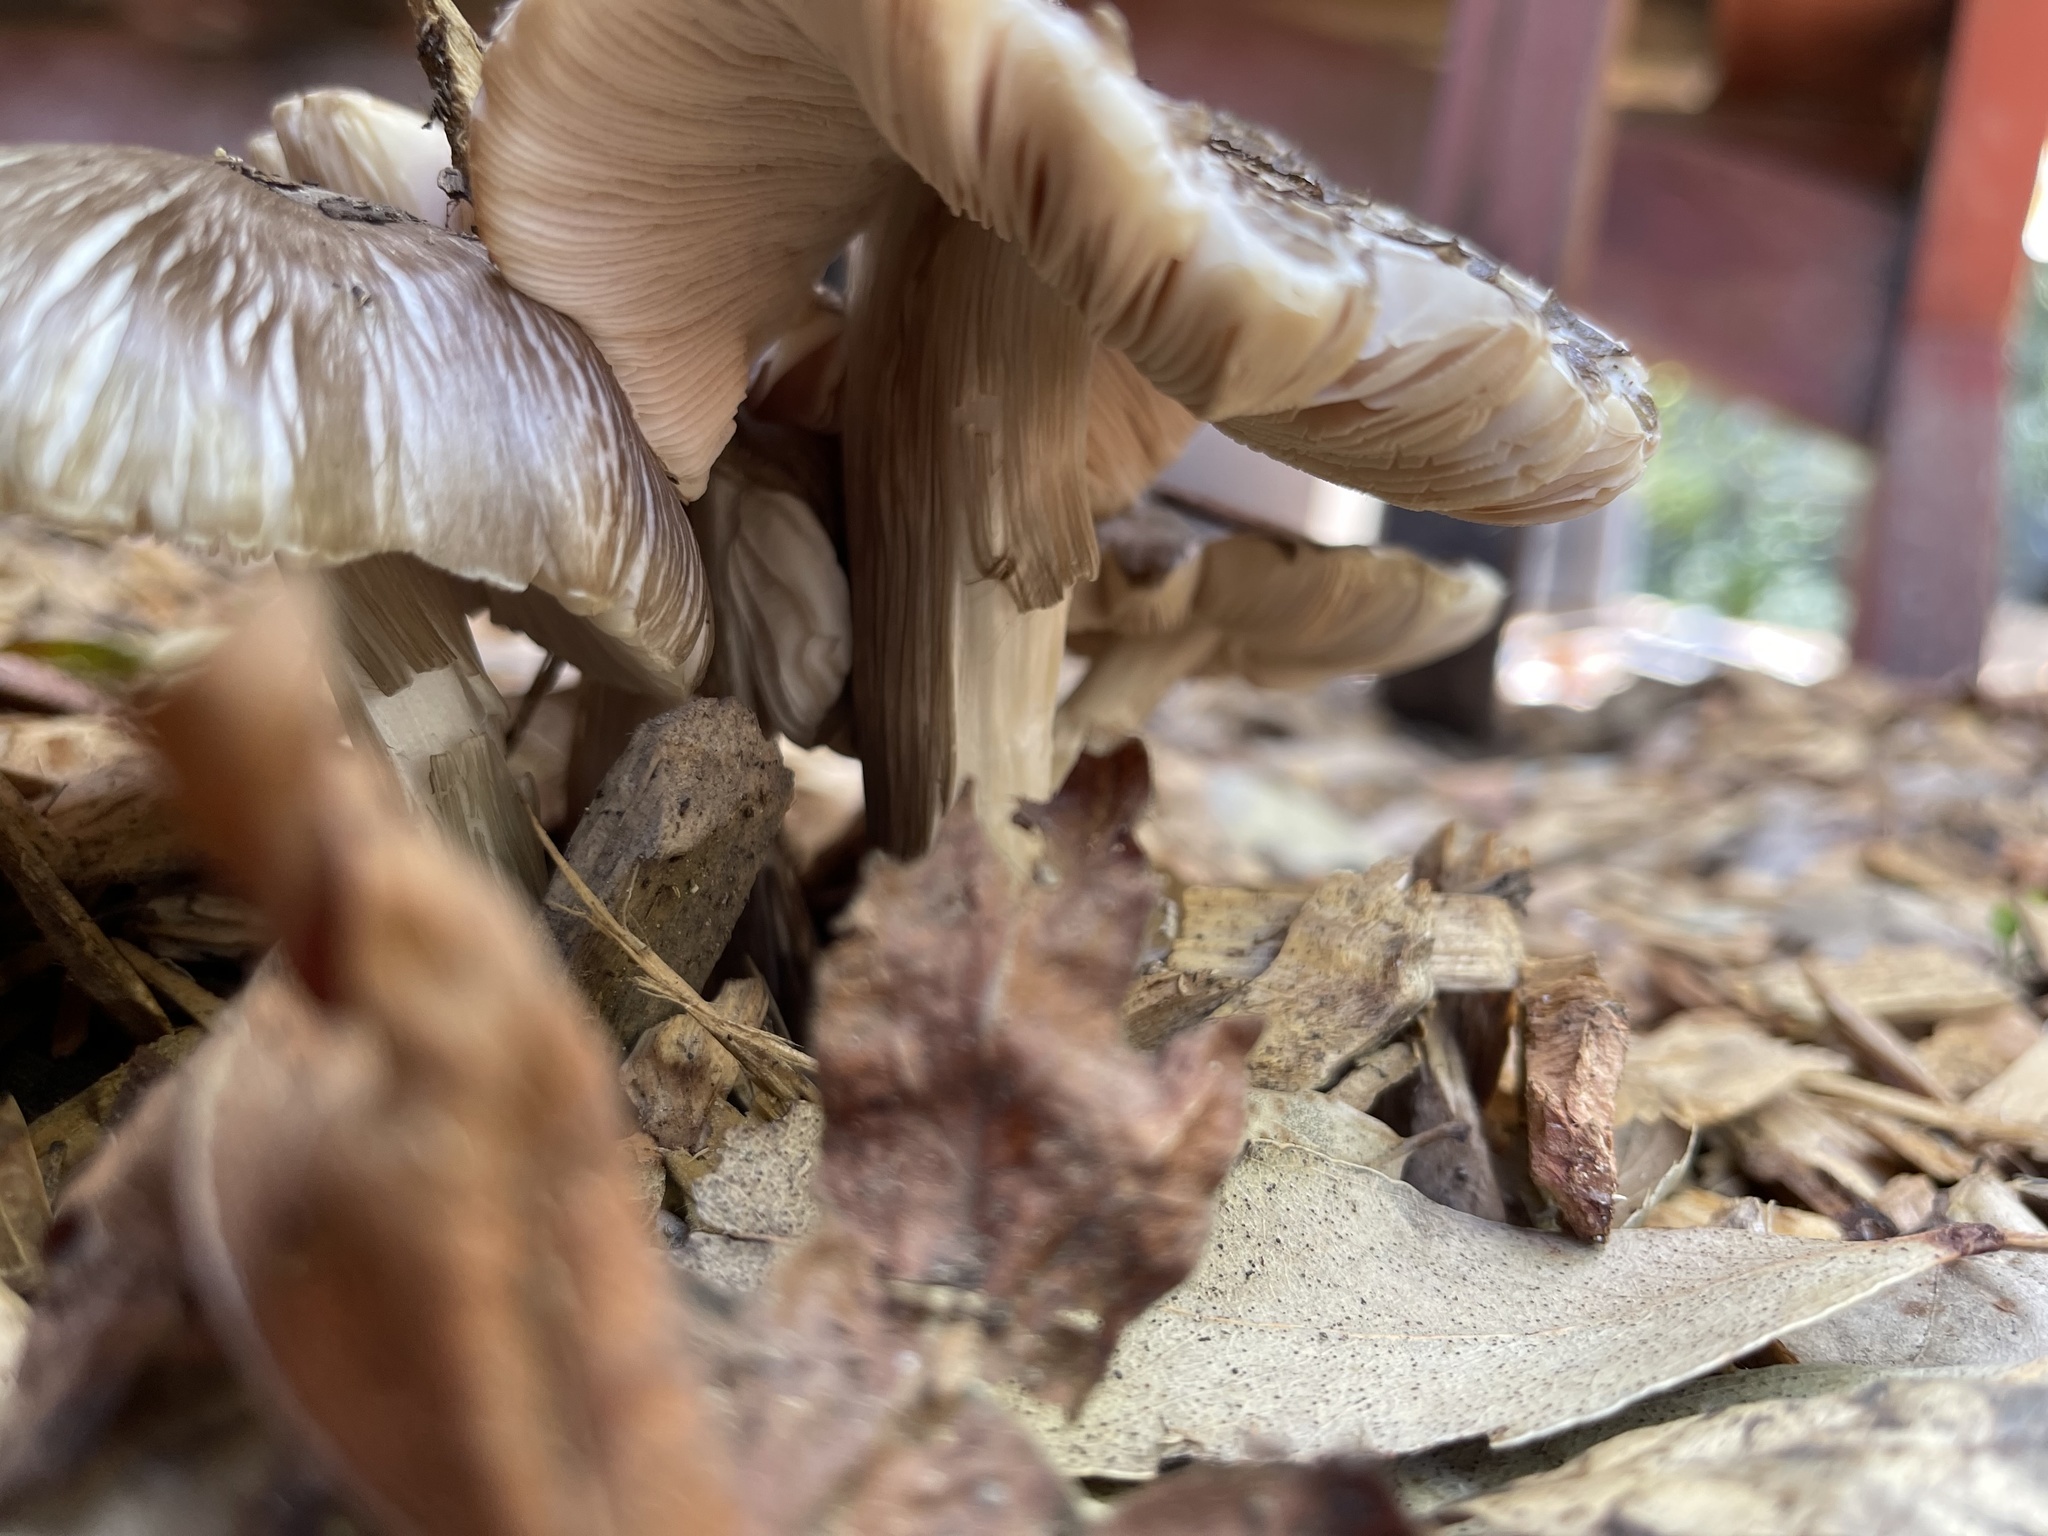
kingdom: Fungi
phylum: Basidiomycota
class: Agaricomycetes
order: Agaricales
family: Pluteaceae
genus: Pluteus
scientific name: Pluteus cervinus
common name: Deer shield
